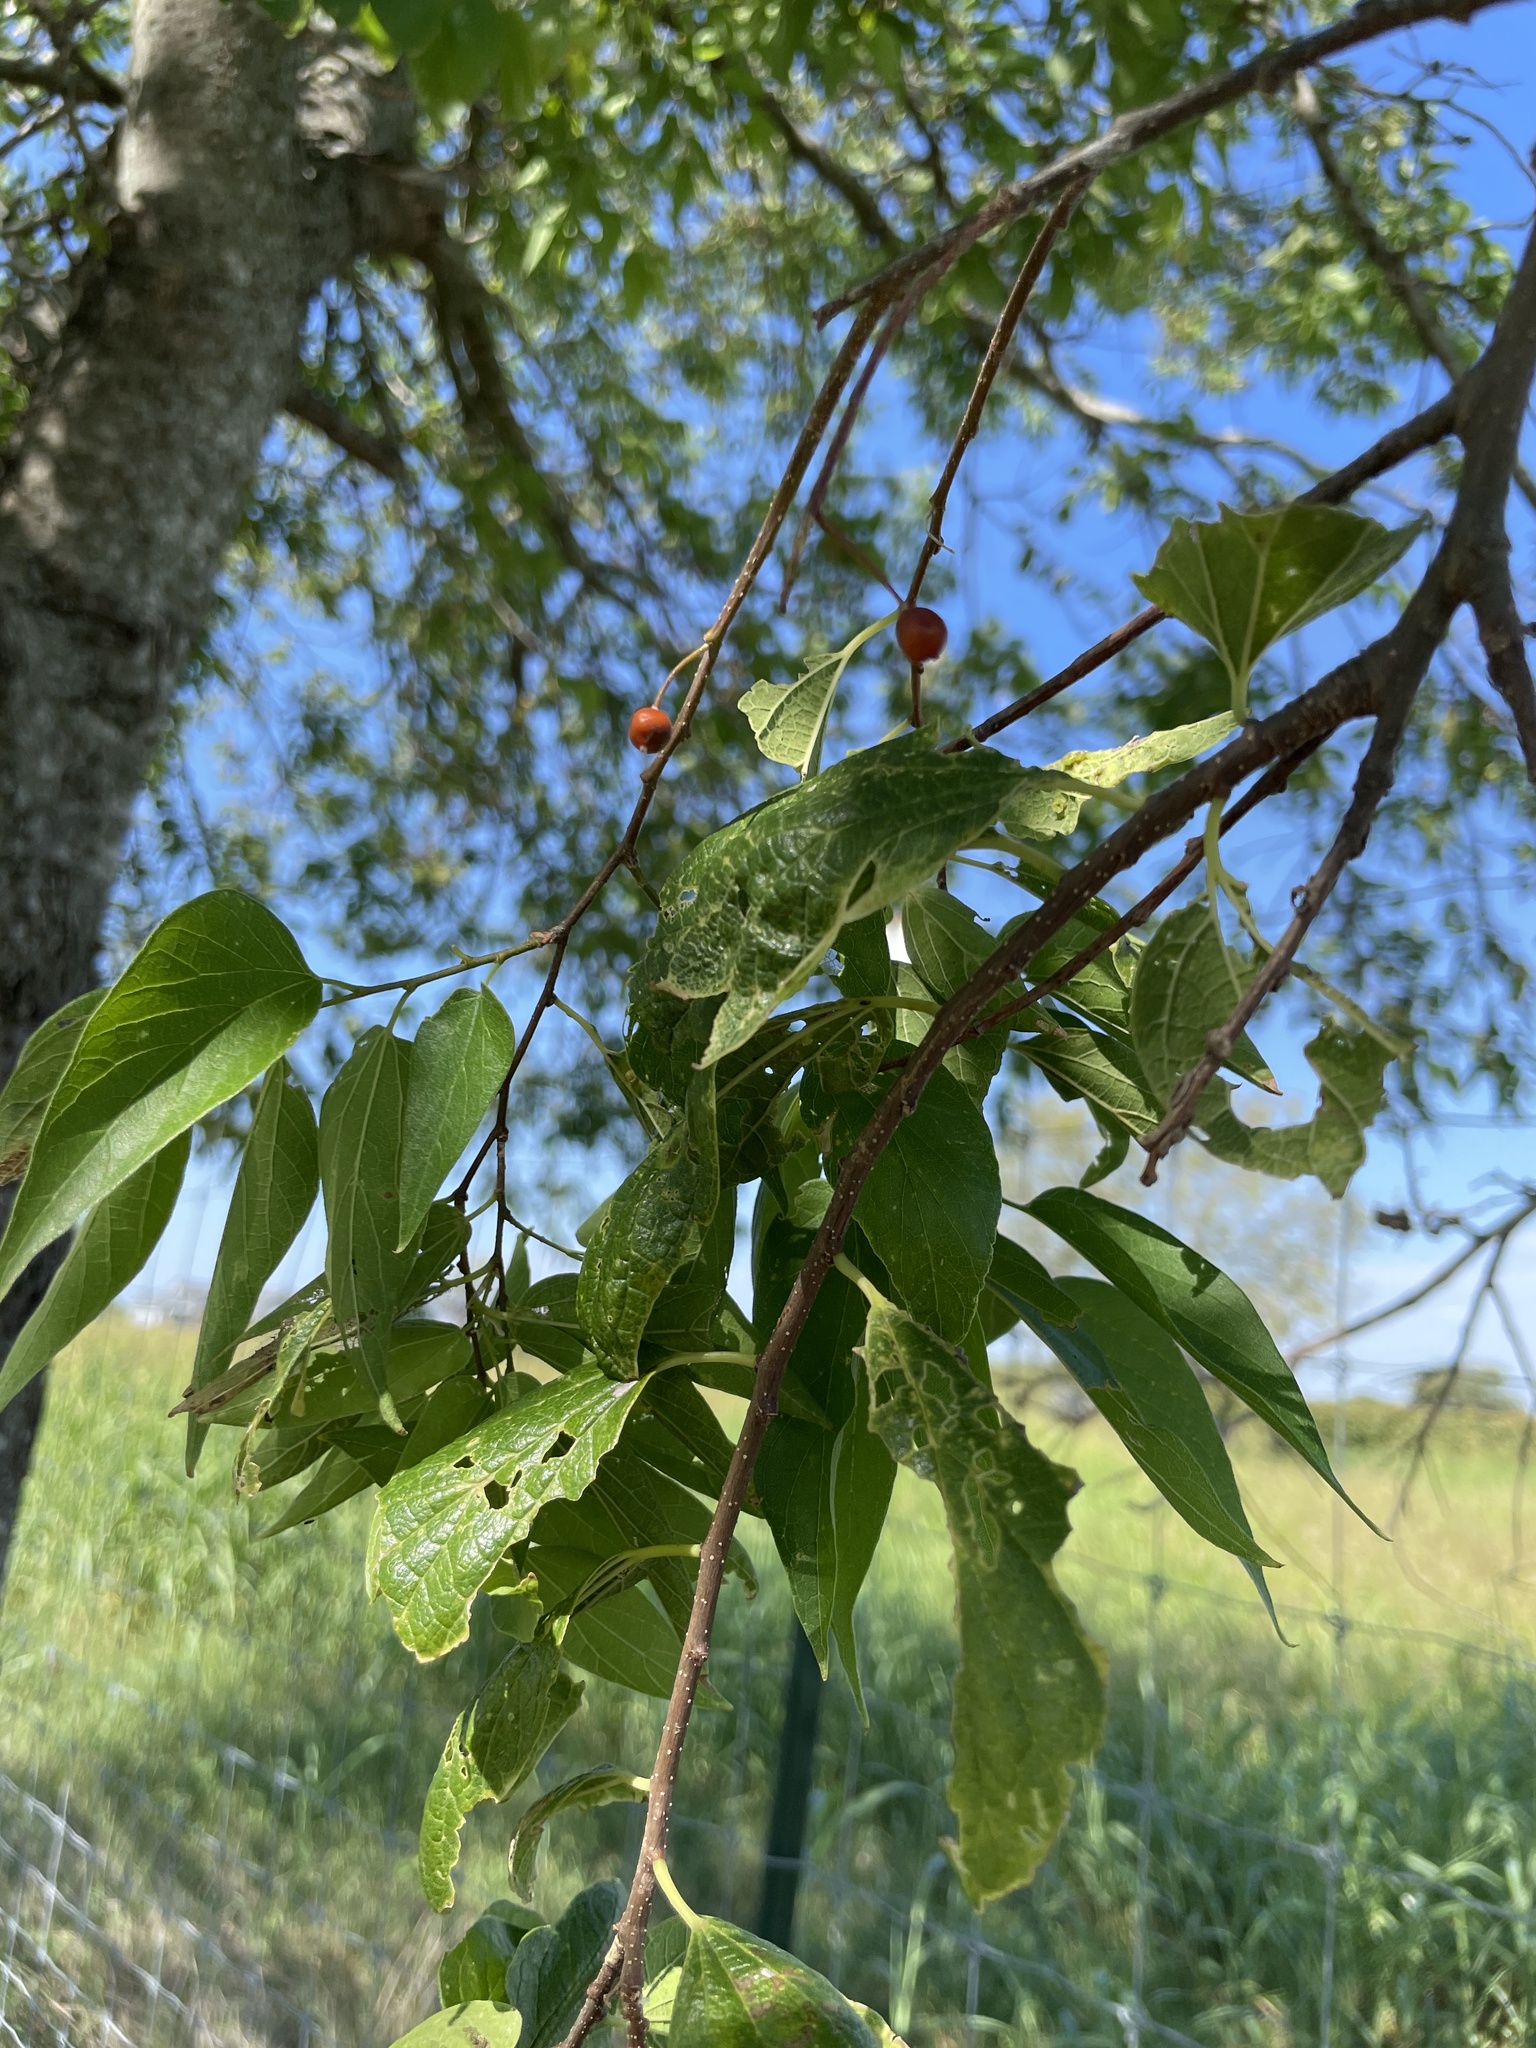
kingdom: Plantae
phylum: Tracheophyta
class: Magnoliopsida
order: Rosales
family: Cannabaceae
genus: Celtis
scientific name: Celtis laevigata
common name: Sugarberry
